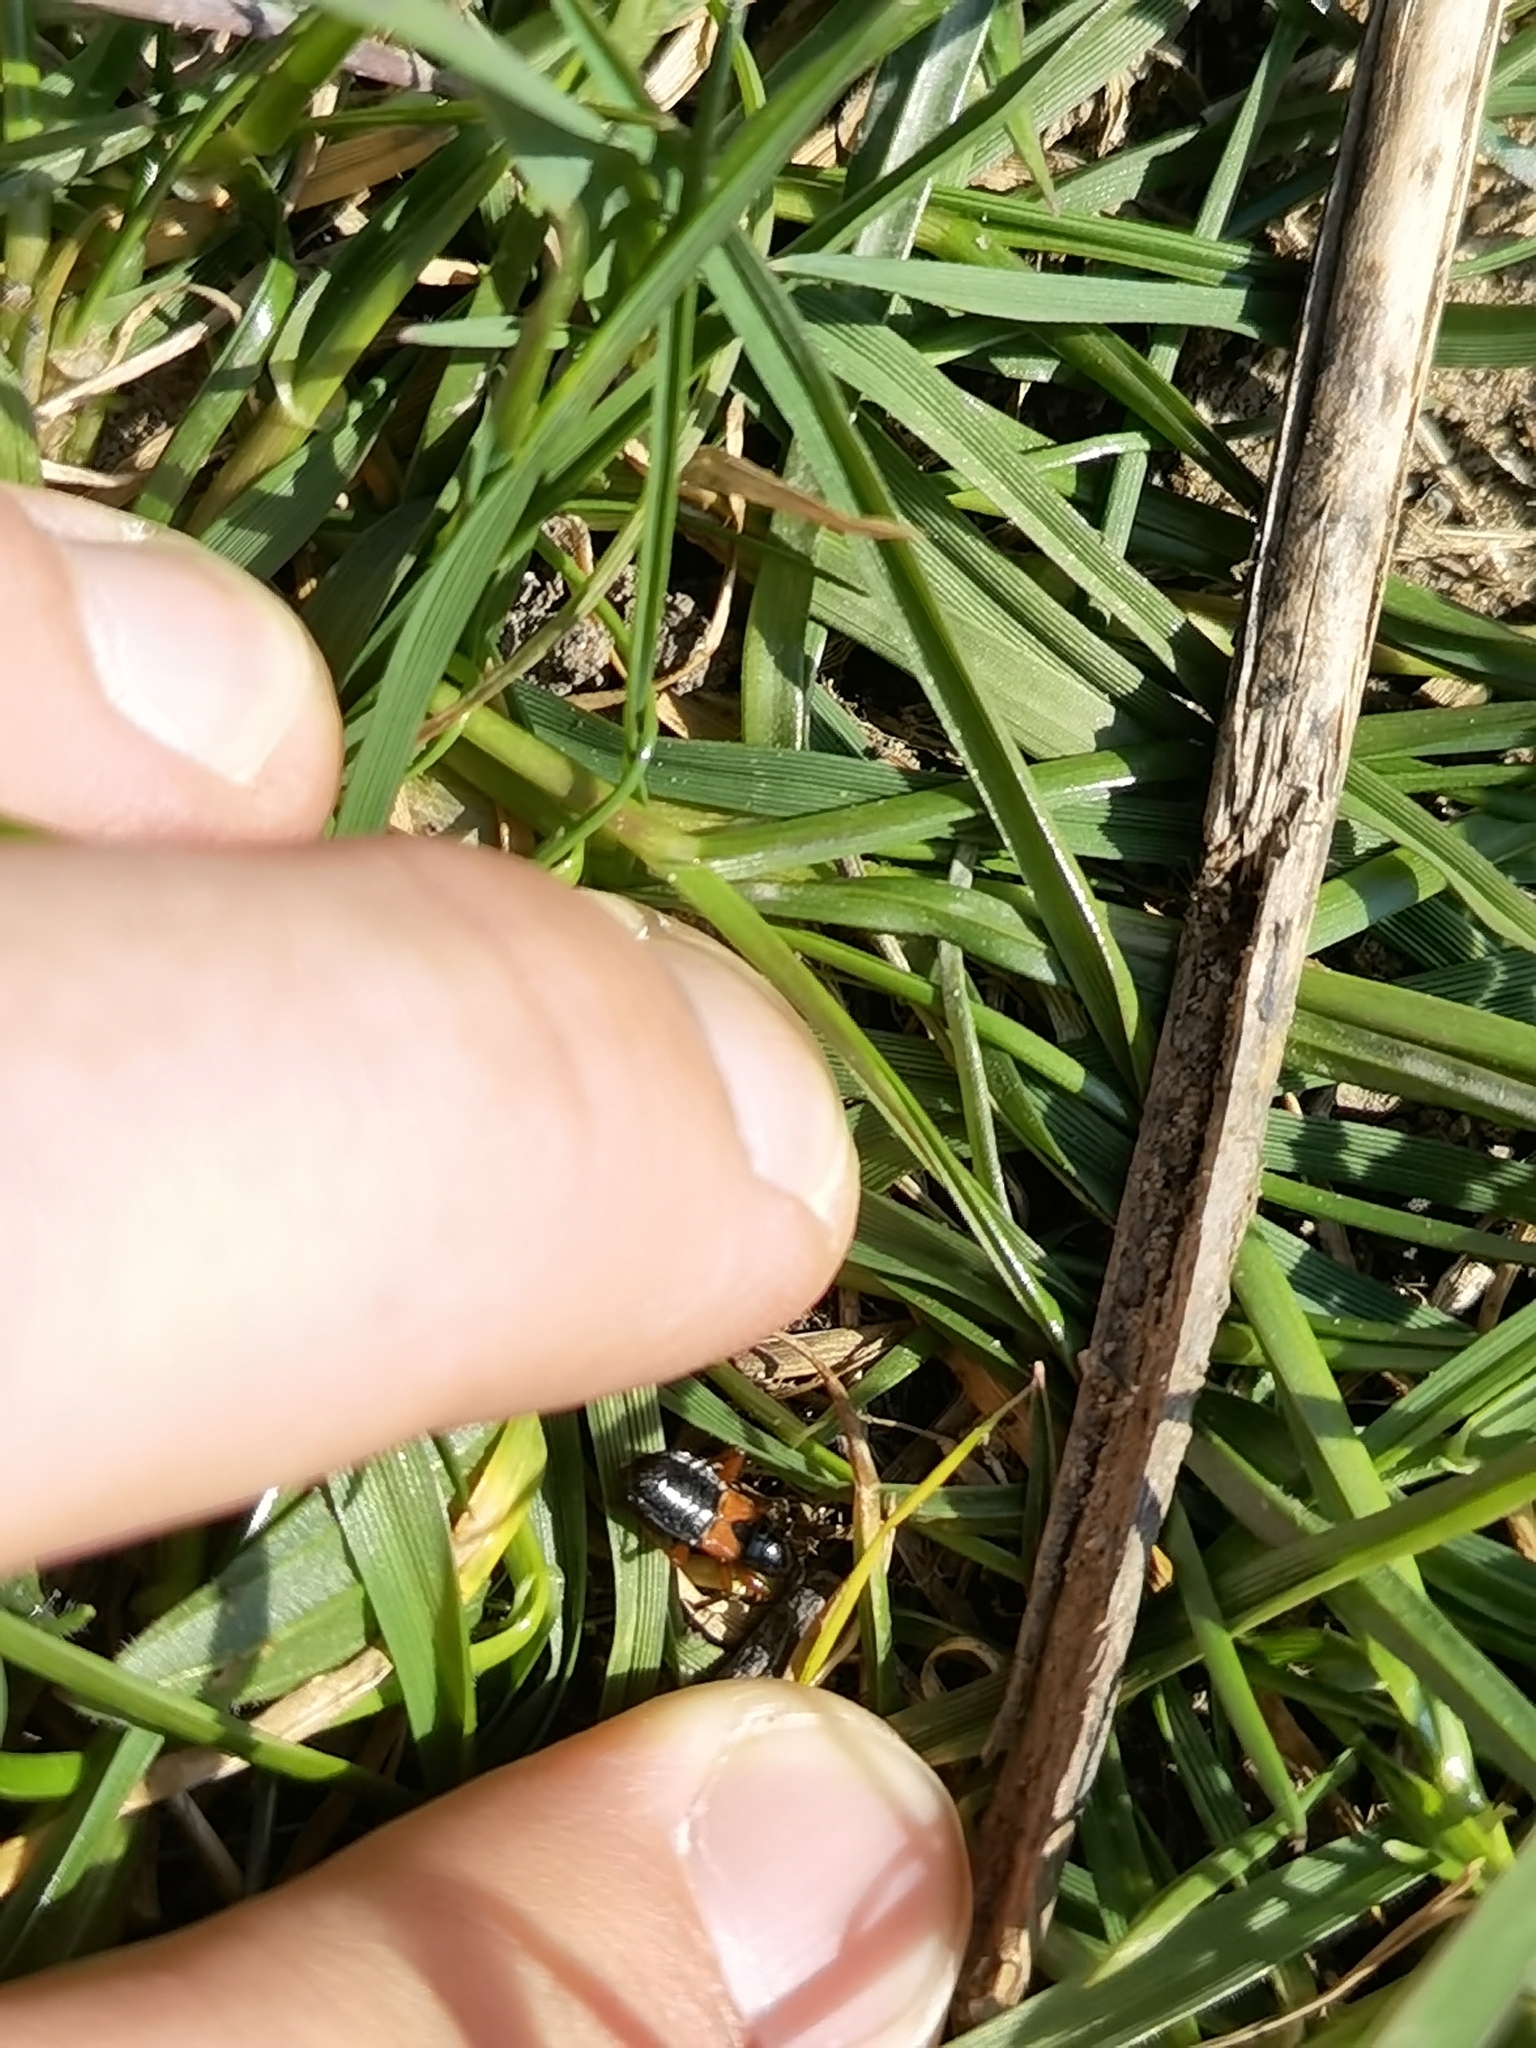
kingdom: Animalia
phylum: Arthropoda
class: Insecta
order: Hemiptera
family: Nabidae
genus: Prostemma
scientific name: Prostemma guttula
